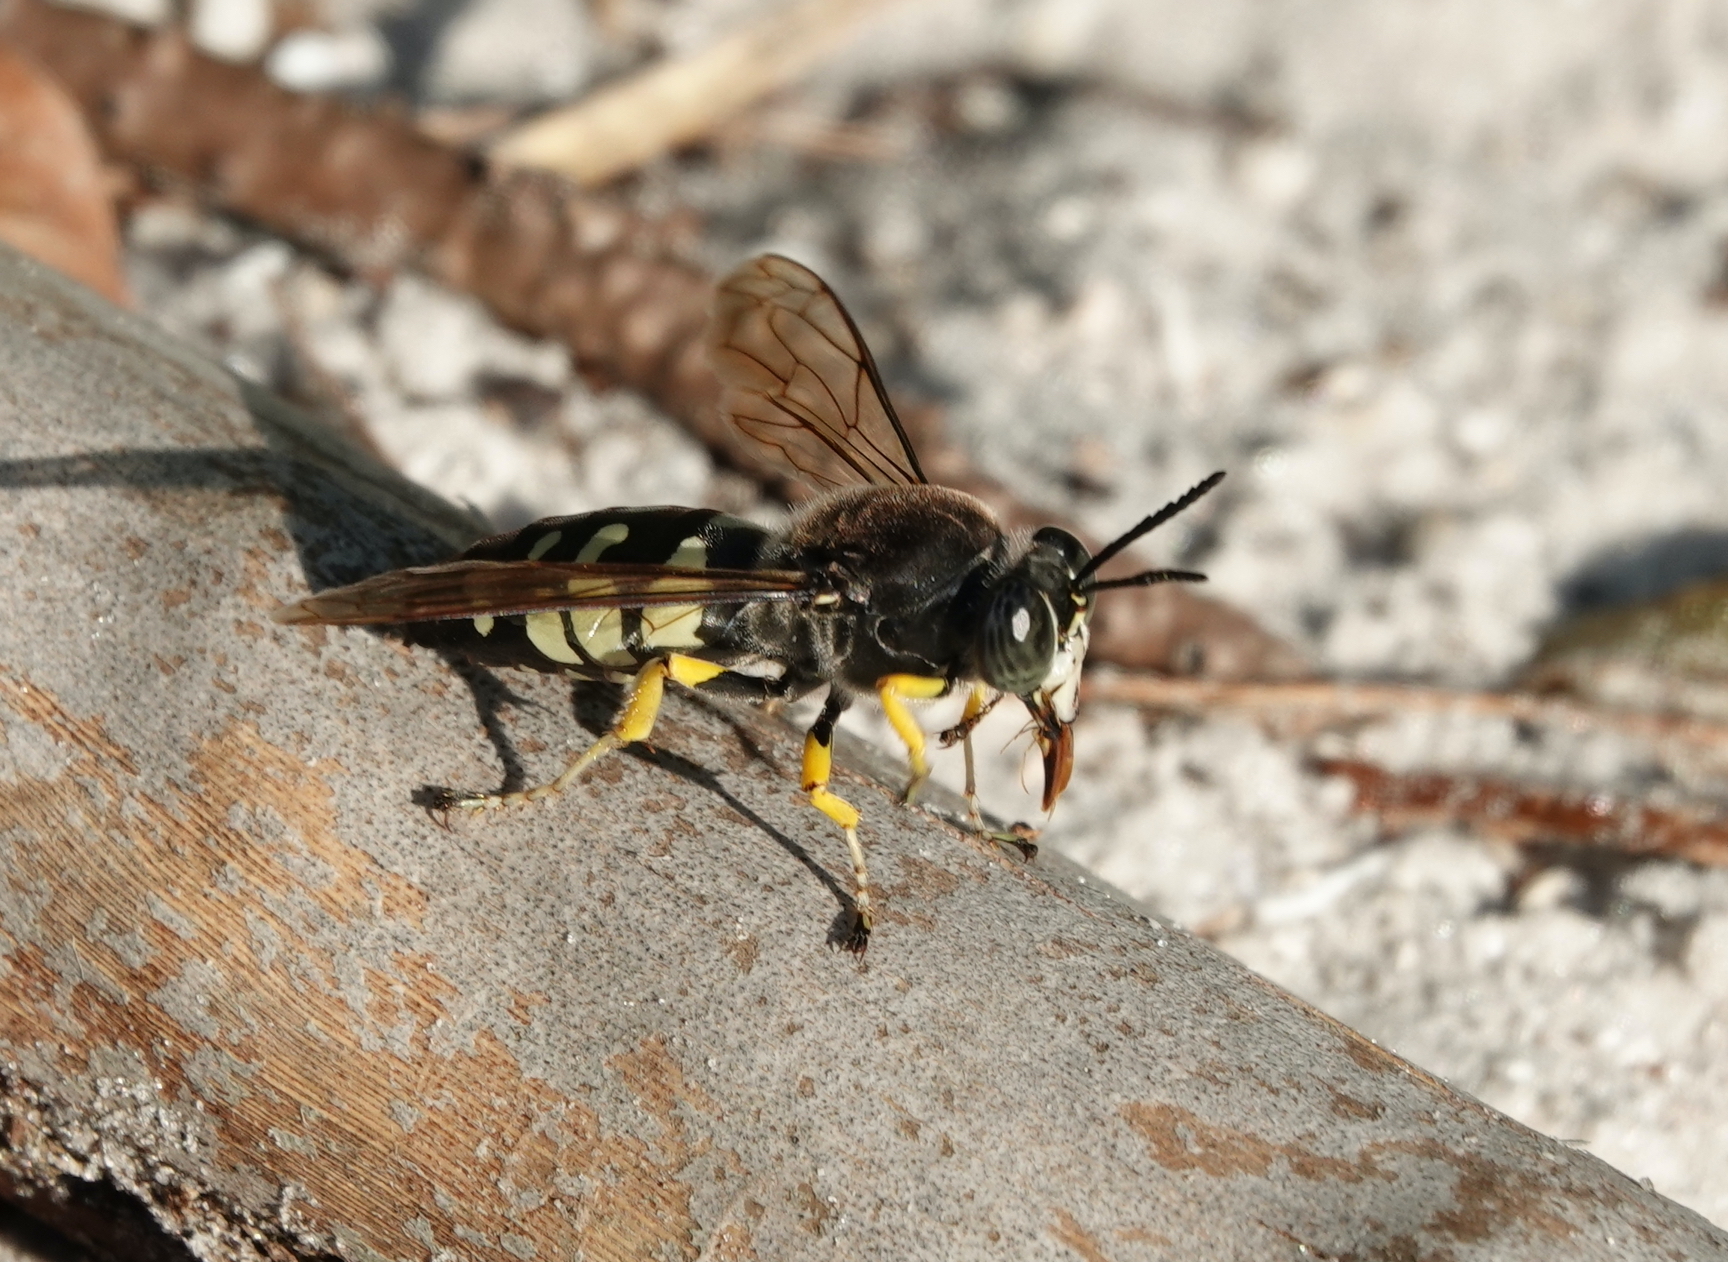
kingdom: Animalia
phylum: Arthropoda
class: Insecta
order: Hymenoptera
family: Crabronidae
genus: Stictia
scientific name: Stictia carolina
